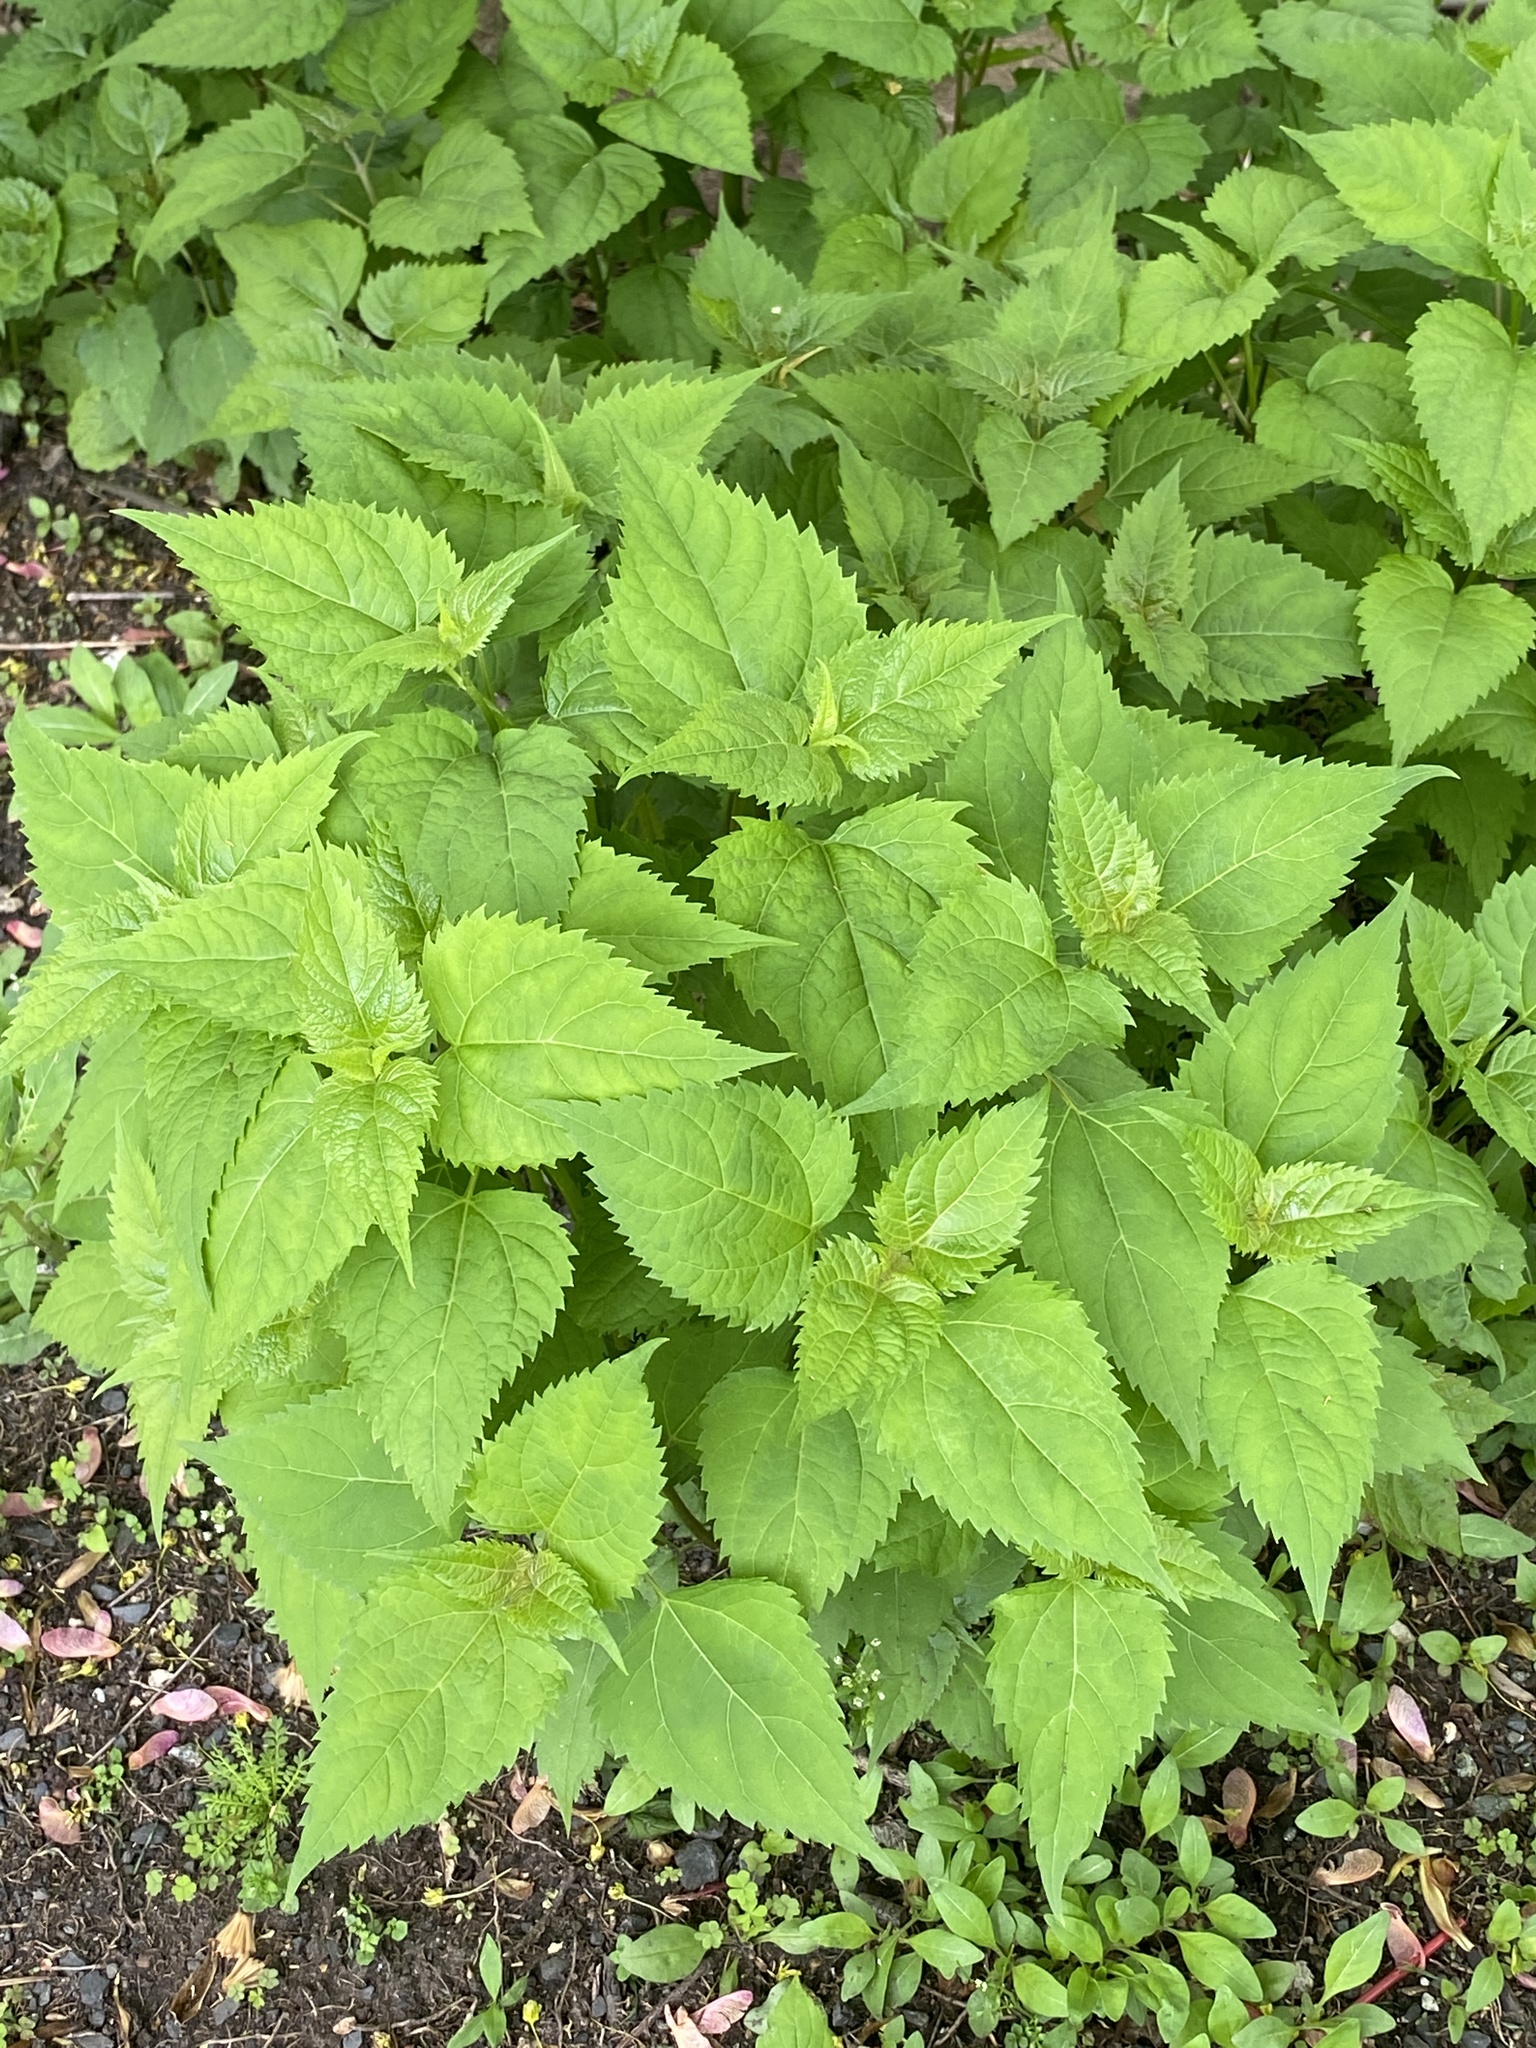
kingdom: Plantae
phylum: Tracheophyta
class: Magnoliopsida
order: Asterales
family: Asteraceae
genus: Ageratina
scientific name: Ageratina altissima
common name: White snakeroot
